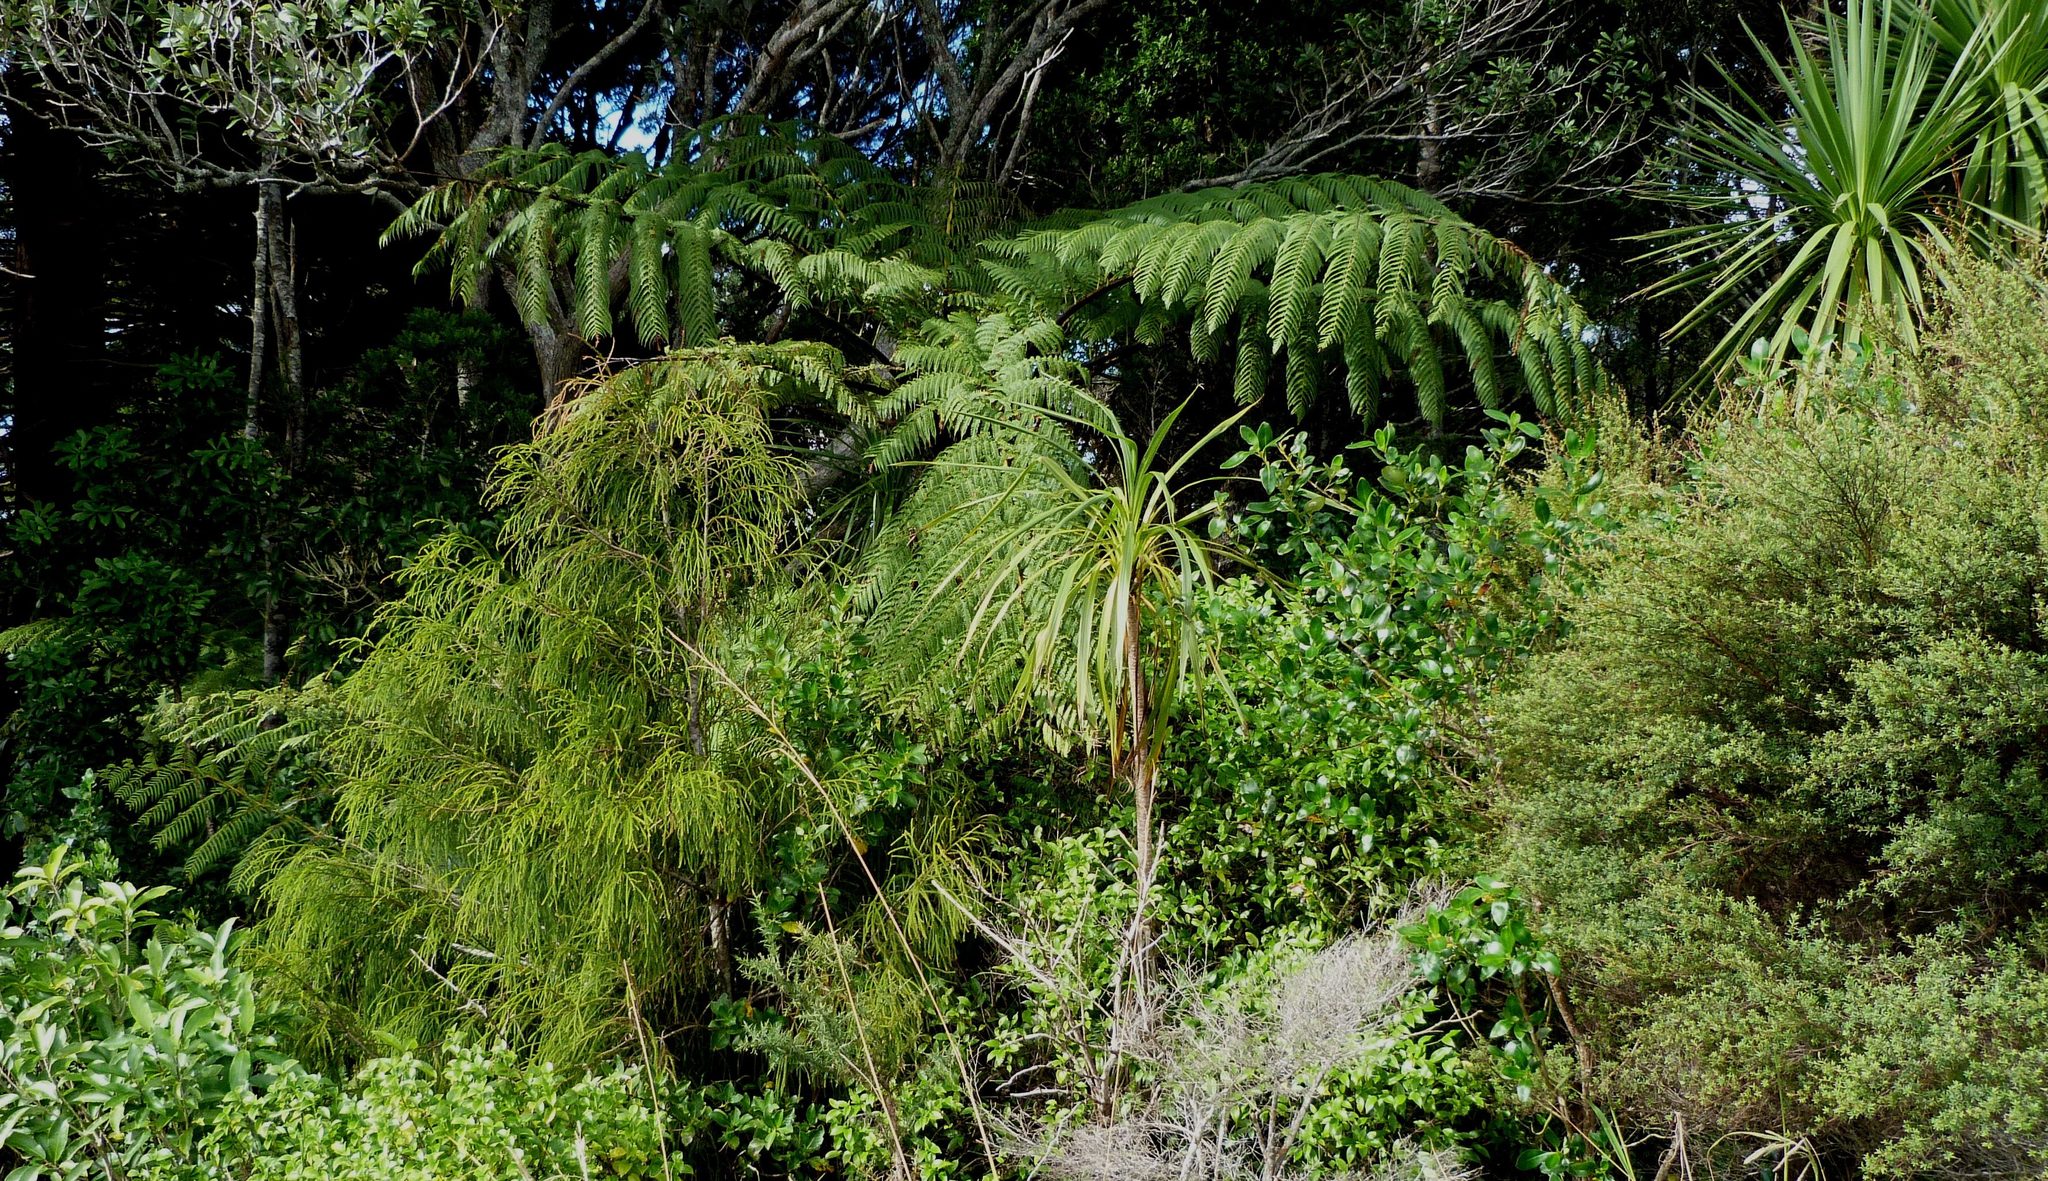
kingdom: Plantae
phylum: Tracheophyta
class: Polypodiopsida
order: Cyatheales
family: Cyatheaceae
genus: Sphaeropteris
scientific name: Sphaeropteris medullaris
